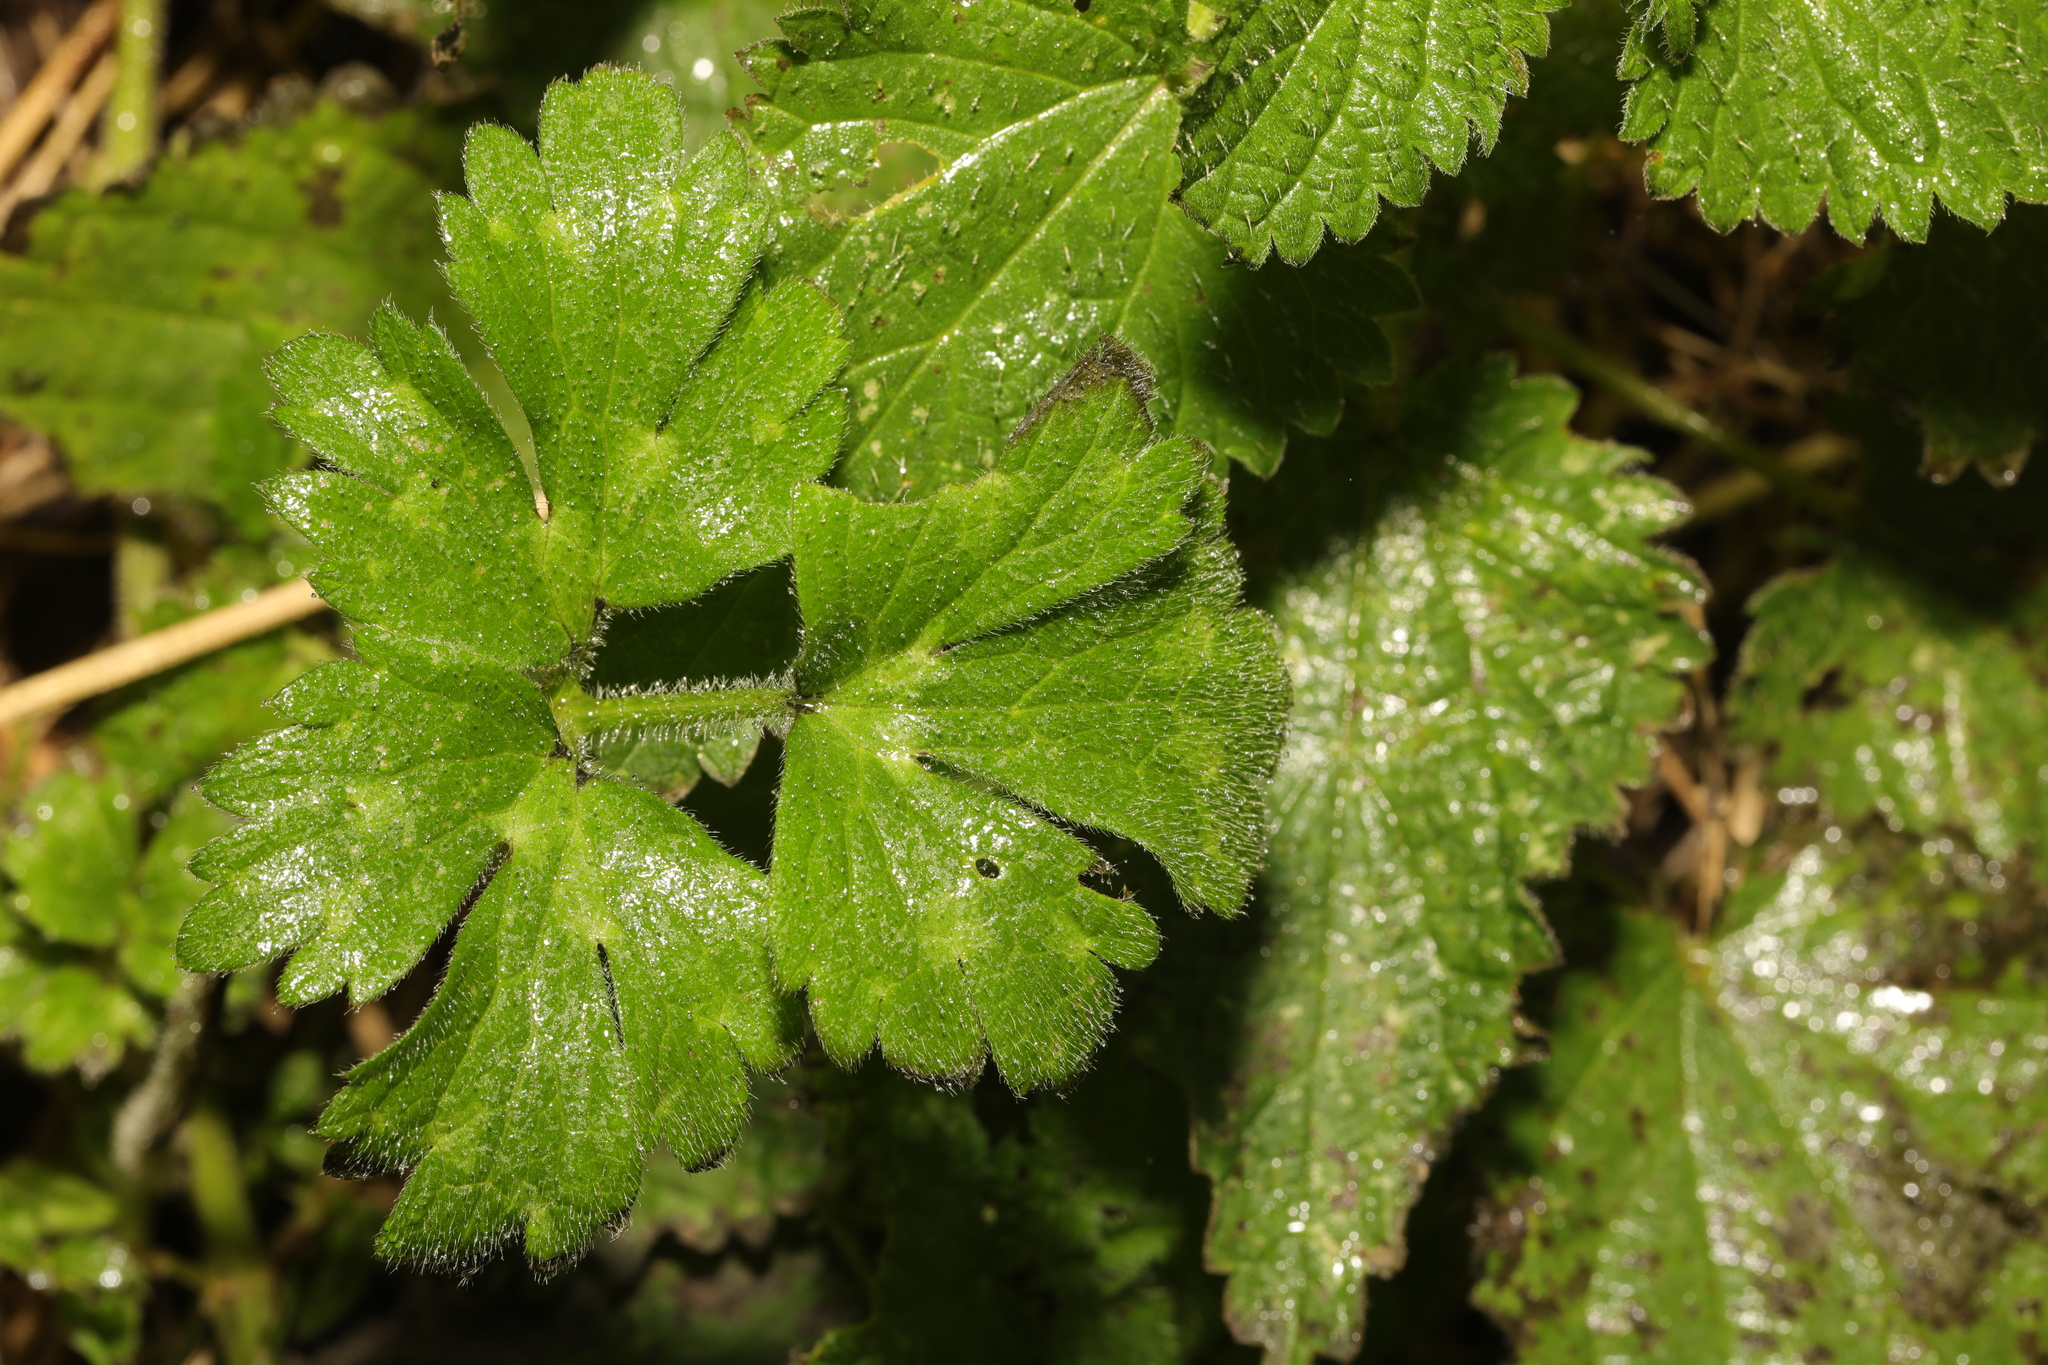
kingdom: Plantae
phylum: Tracheophyta
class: Magnoliopsida
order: Ranunculales
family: Ranunculaceae
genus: Ranunculus
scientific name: Ranunculus repens
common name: Creeping buttercup
